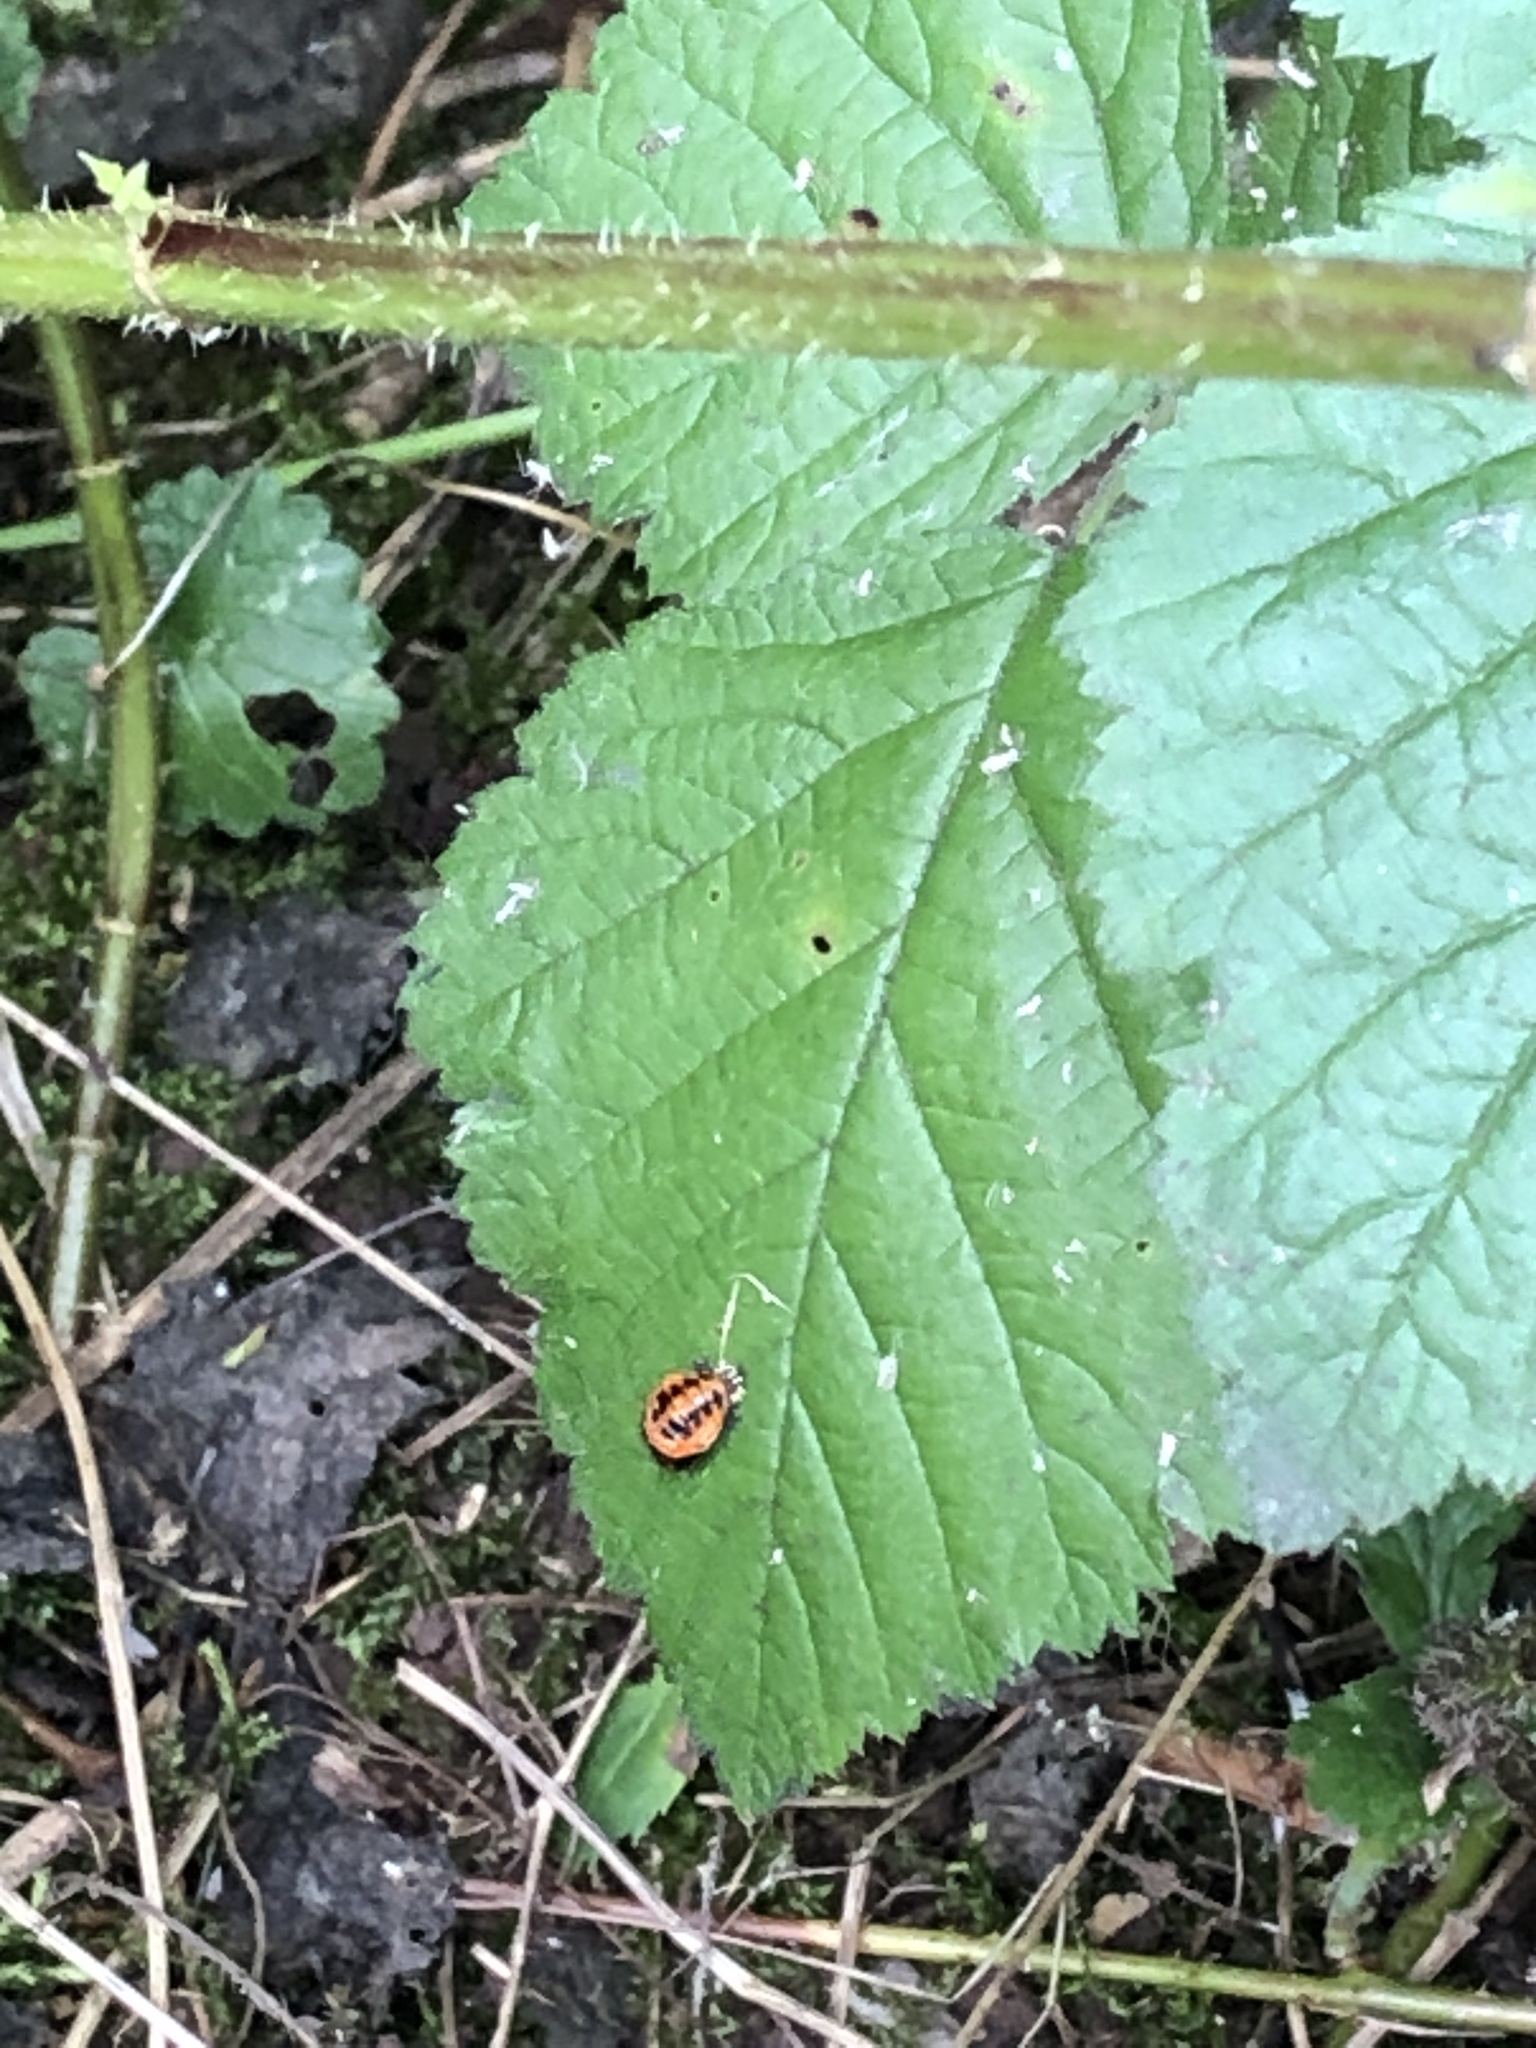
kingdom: Animalia
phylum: Arthropoda
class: Insecta
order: Coleoptera
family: Coccinellidae
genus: Harmonia
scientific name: Harmonia axyridis
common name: Harlequin ladybird
